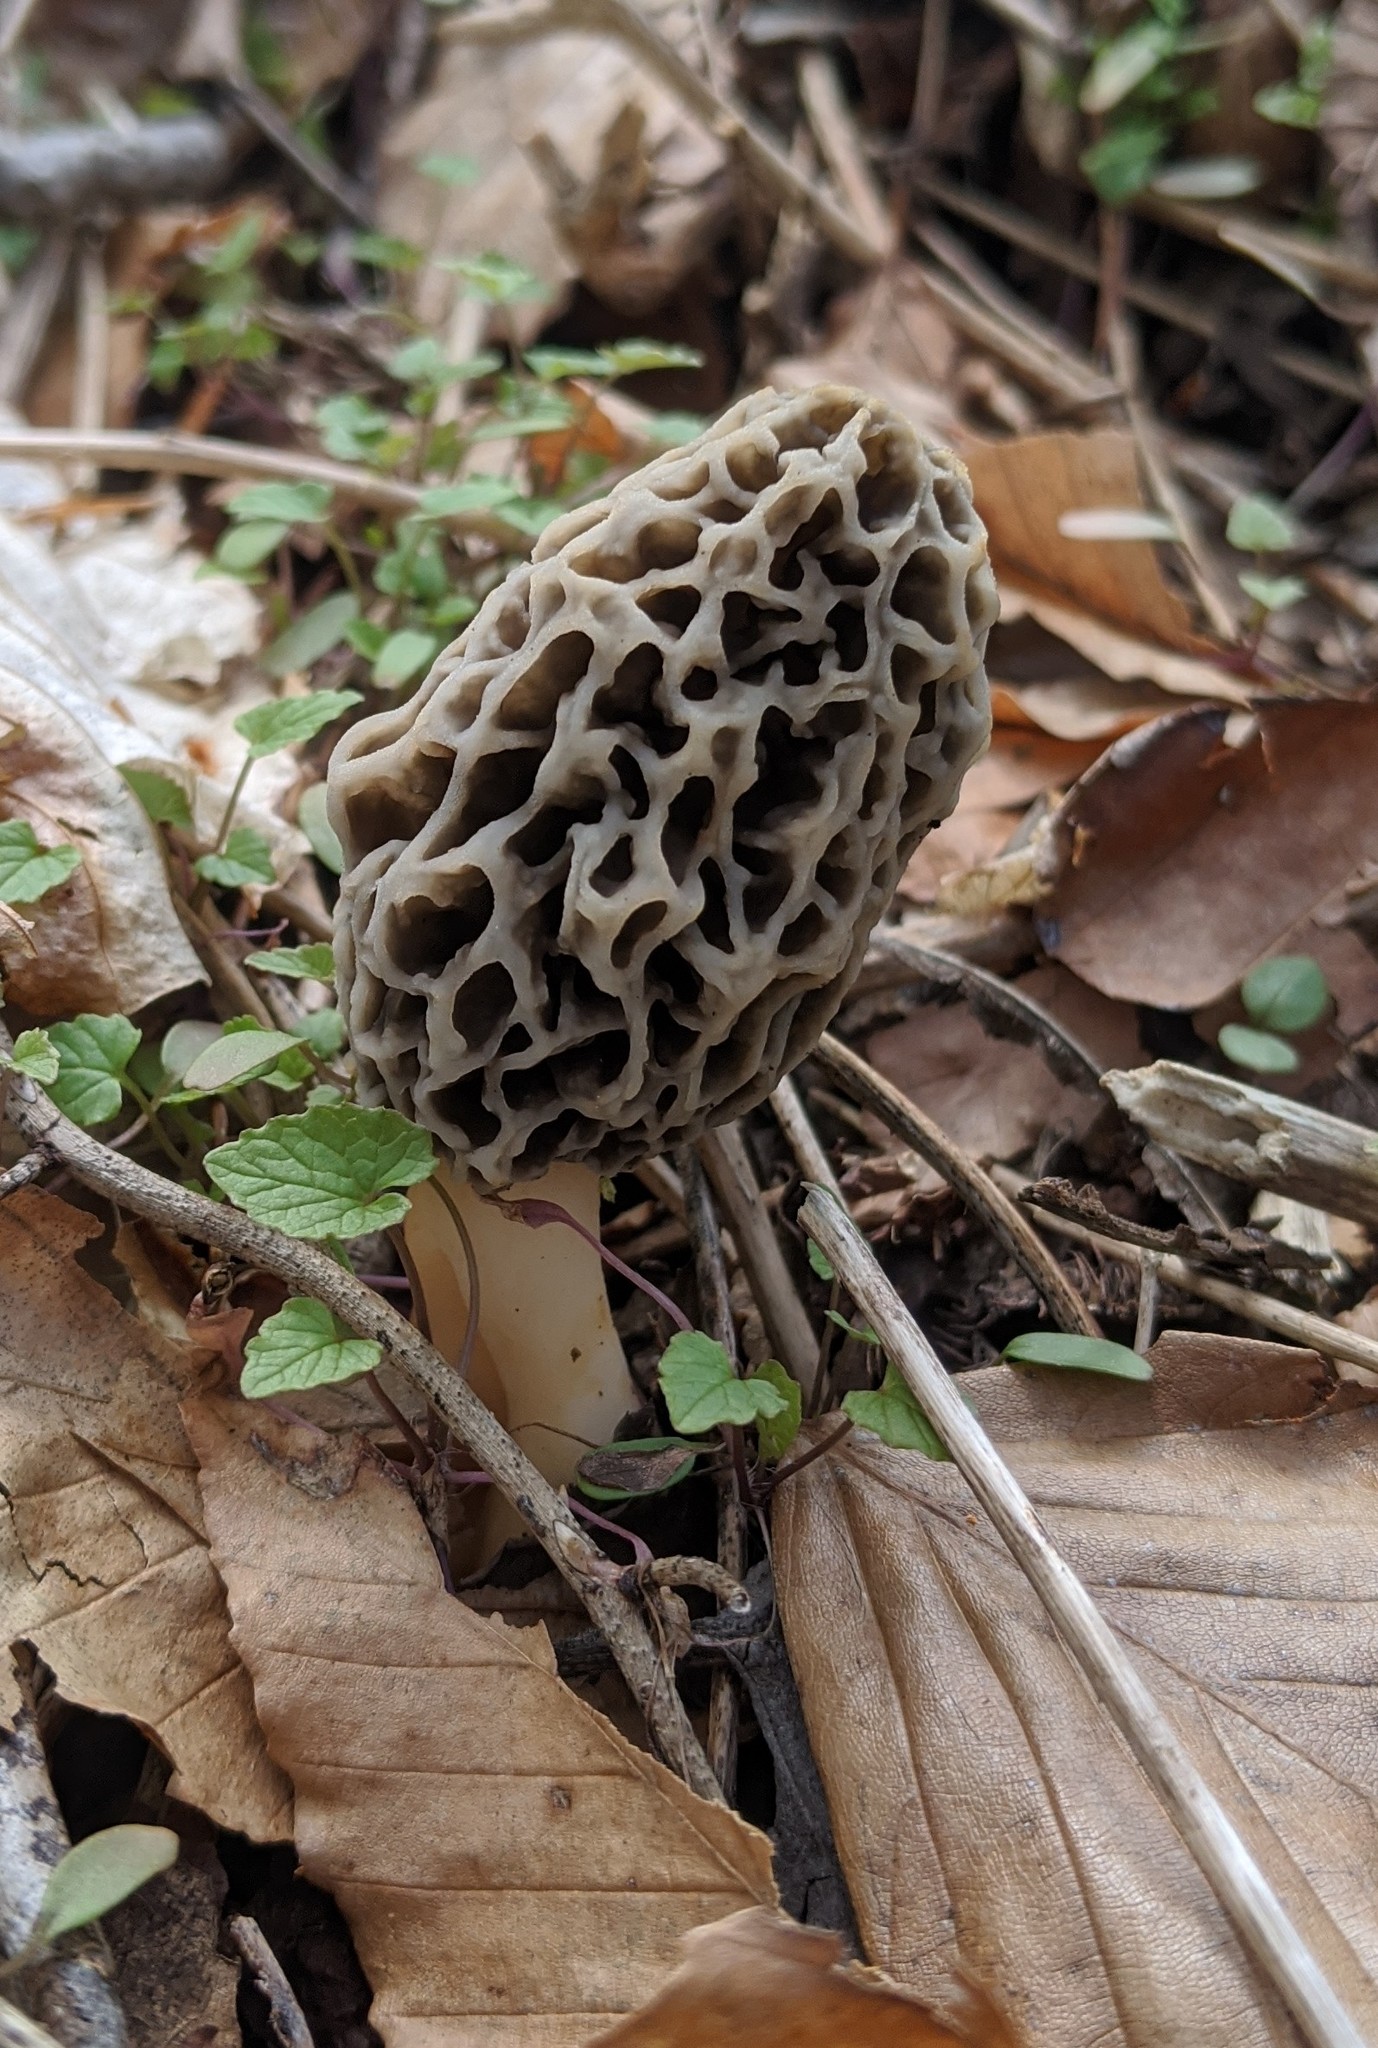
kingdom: Fungi
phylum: Ascomycota
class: Pezizomycetes
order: Pezizales
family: Morchellaceae
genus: Morchella
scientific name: Morchella americana
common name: White morel
